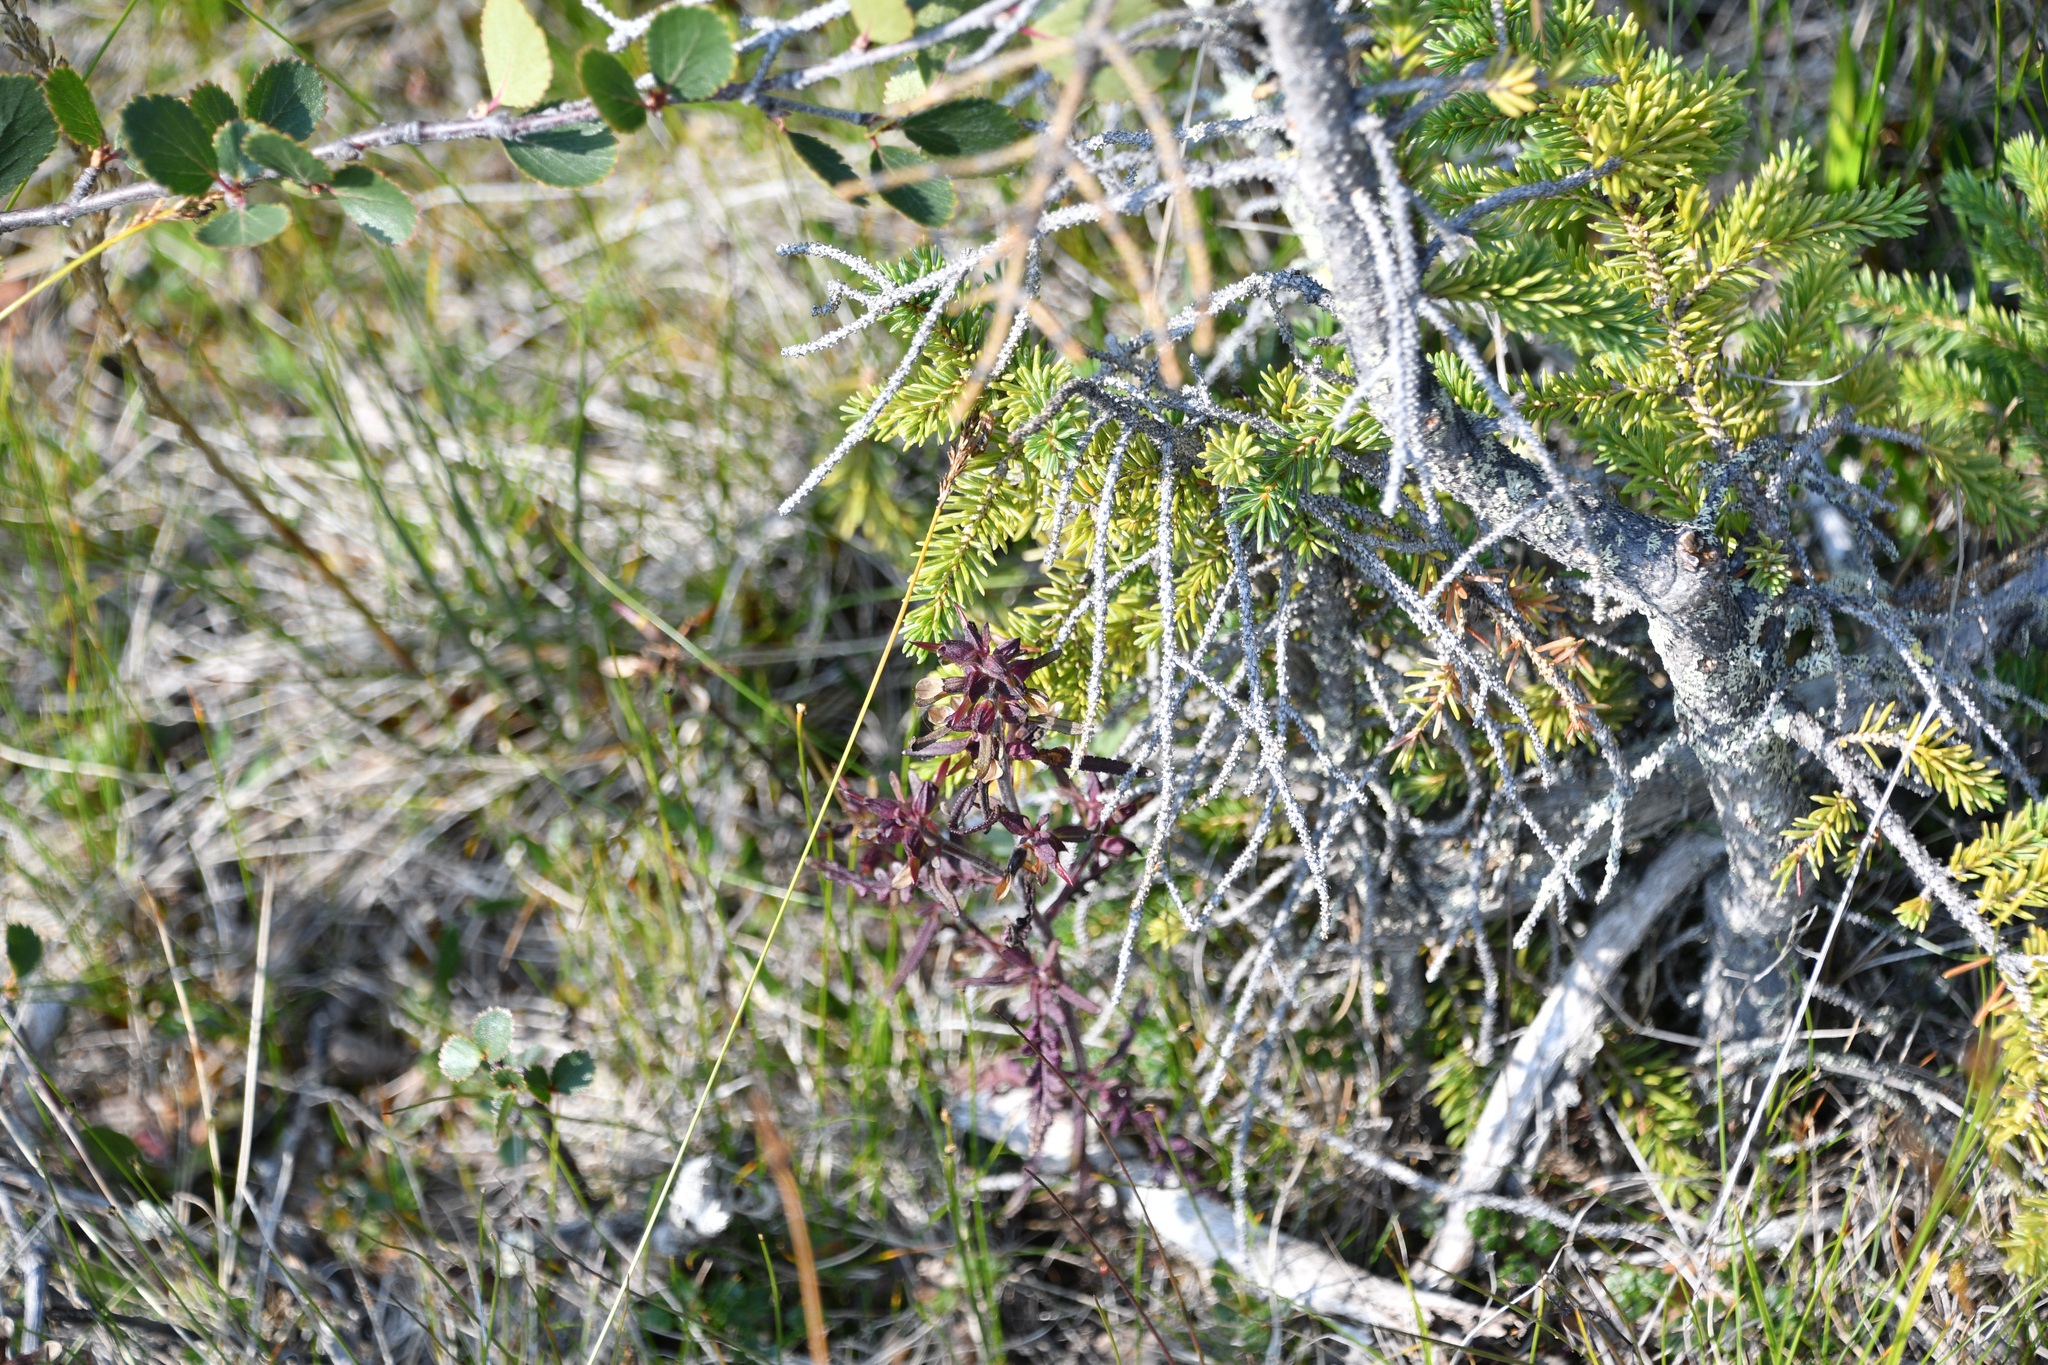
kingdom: Plantae
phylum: Tracheophyta
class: Magnoliopsida
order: Lamiales
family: Orobanchaceae
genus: Pedicularis
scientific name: Pedicularis labradorica
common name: Labrador lousewort
